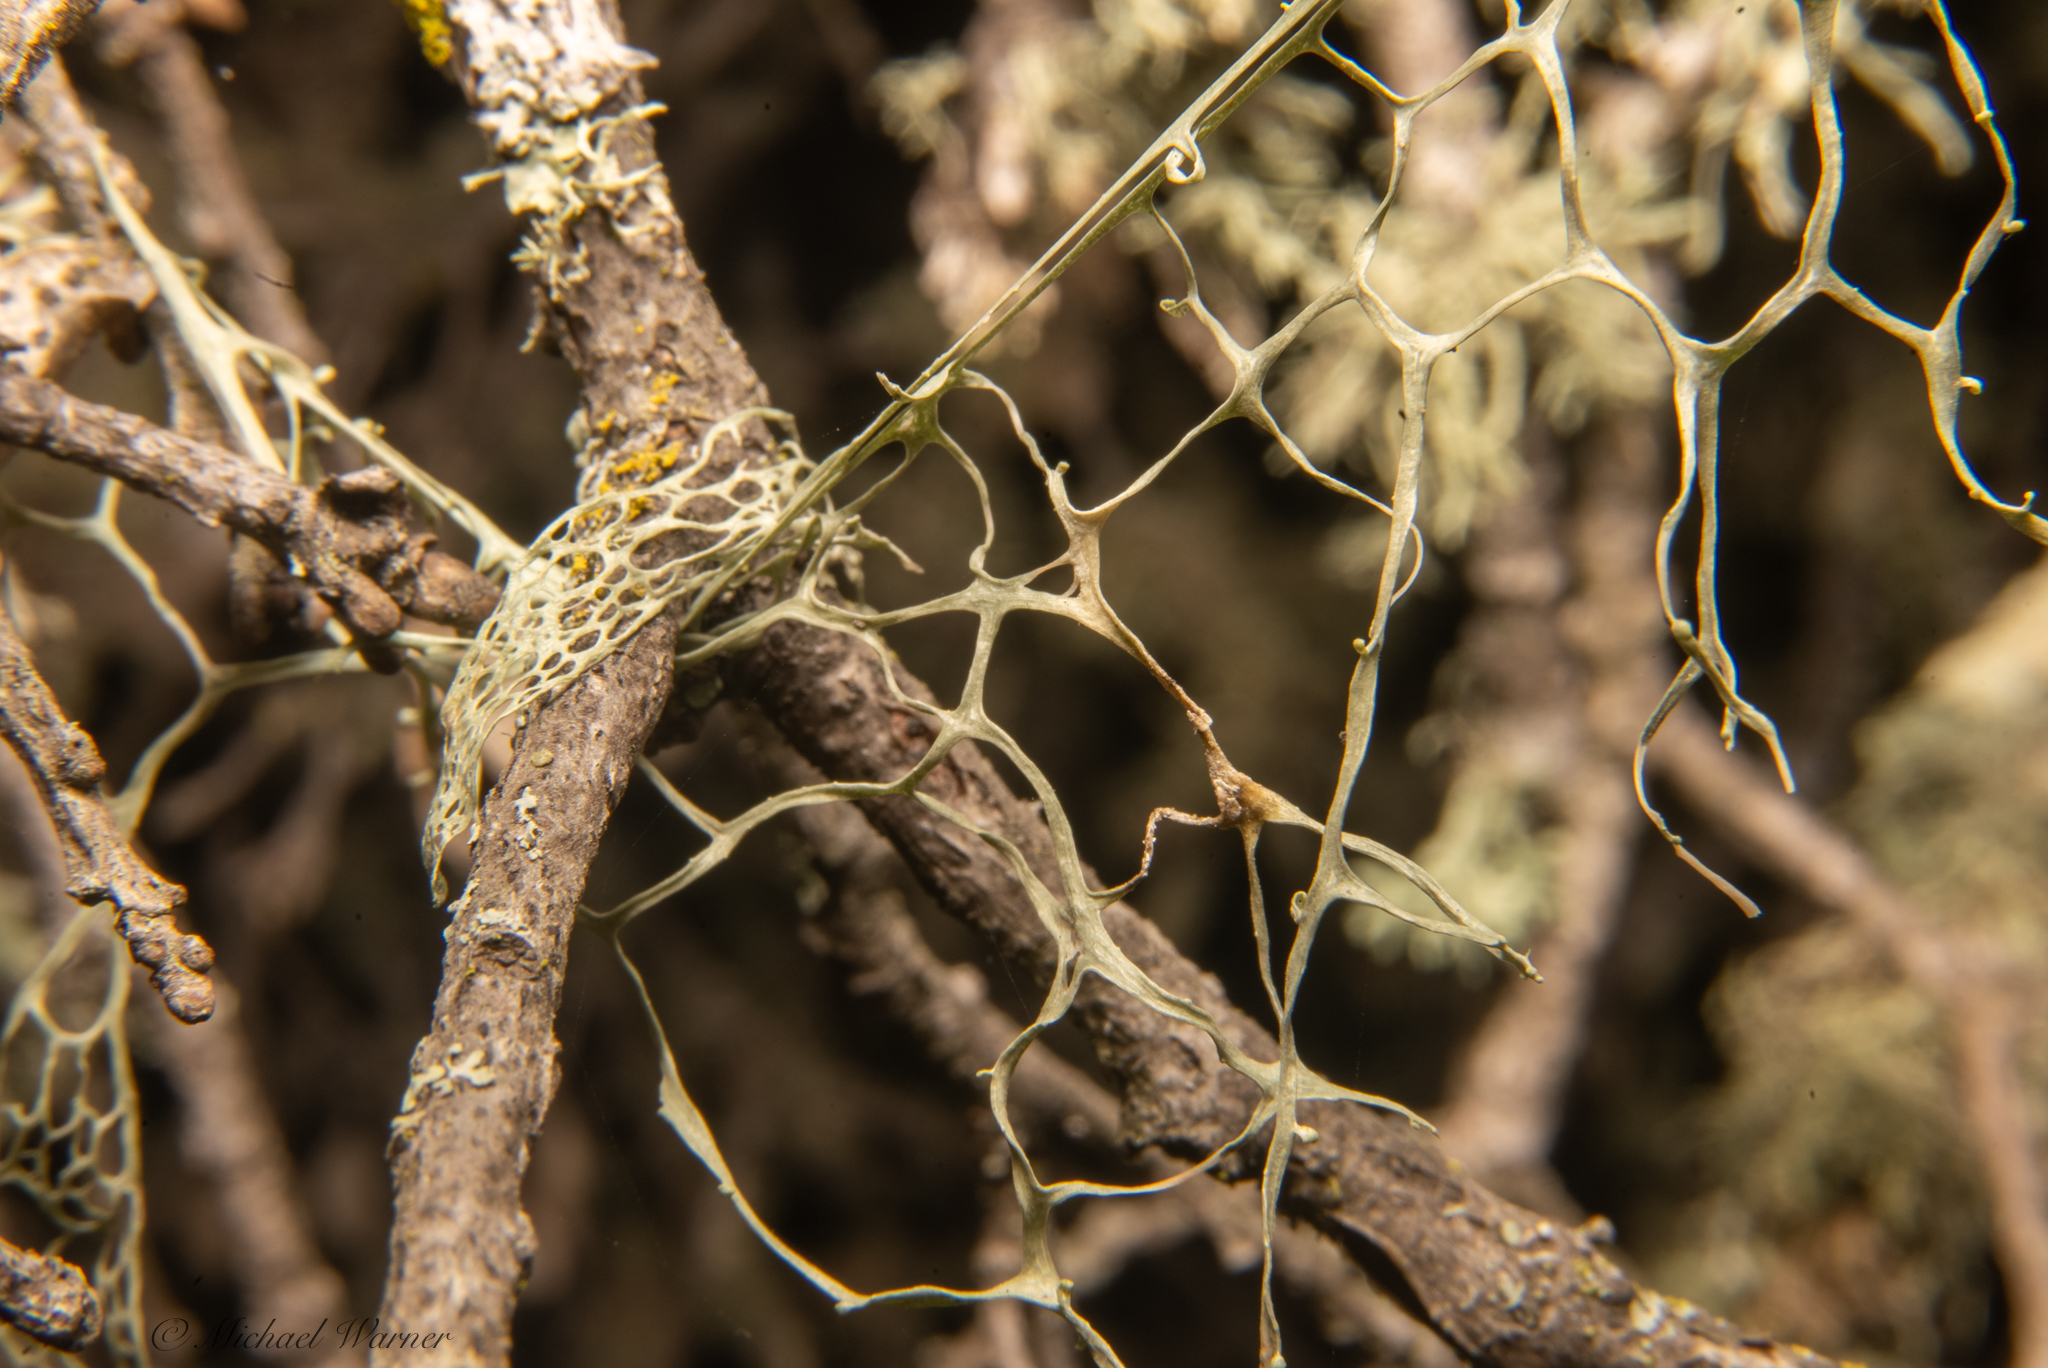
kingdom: Fungi
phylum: Ascomycota
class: Lecanoromycetes
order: Lecanorales
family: Ramalinaceae
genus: Ramalina
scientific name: Ramalina menziesii
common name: Lace lichen
